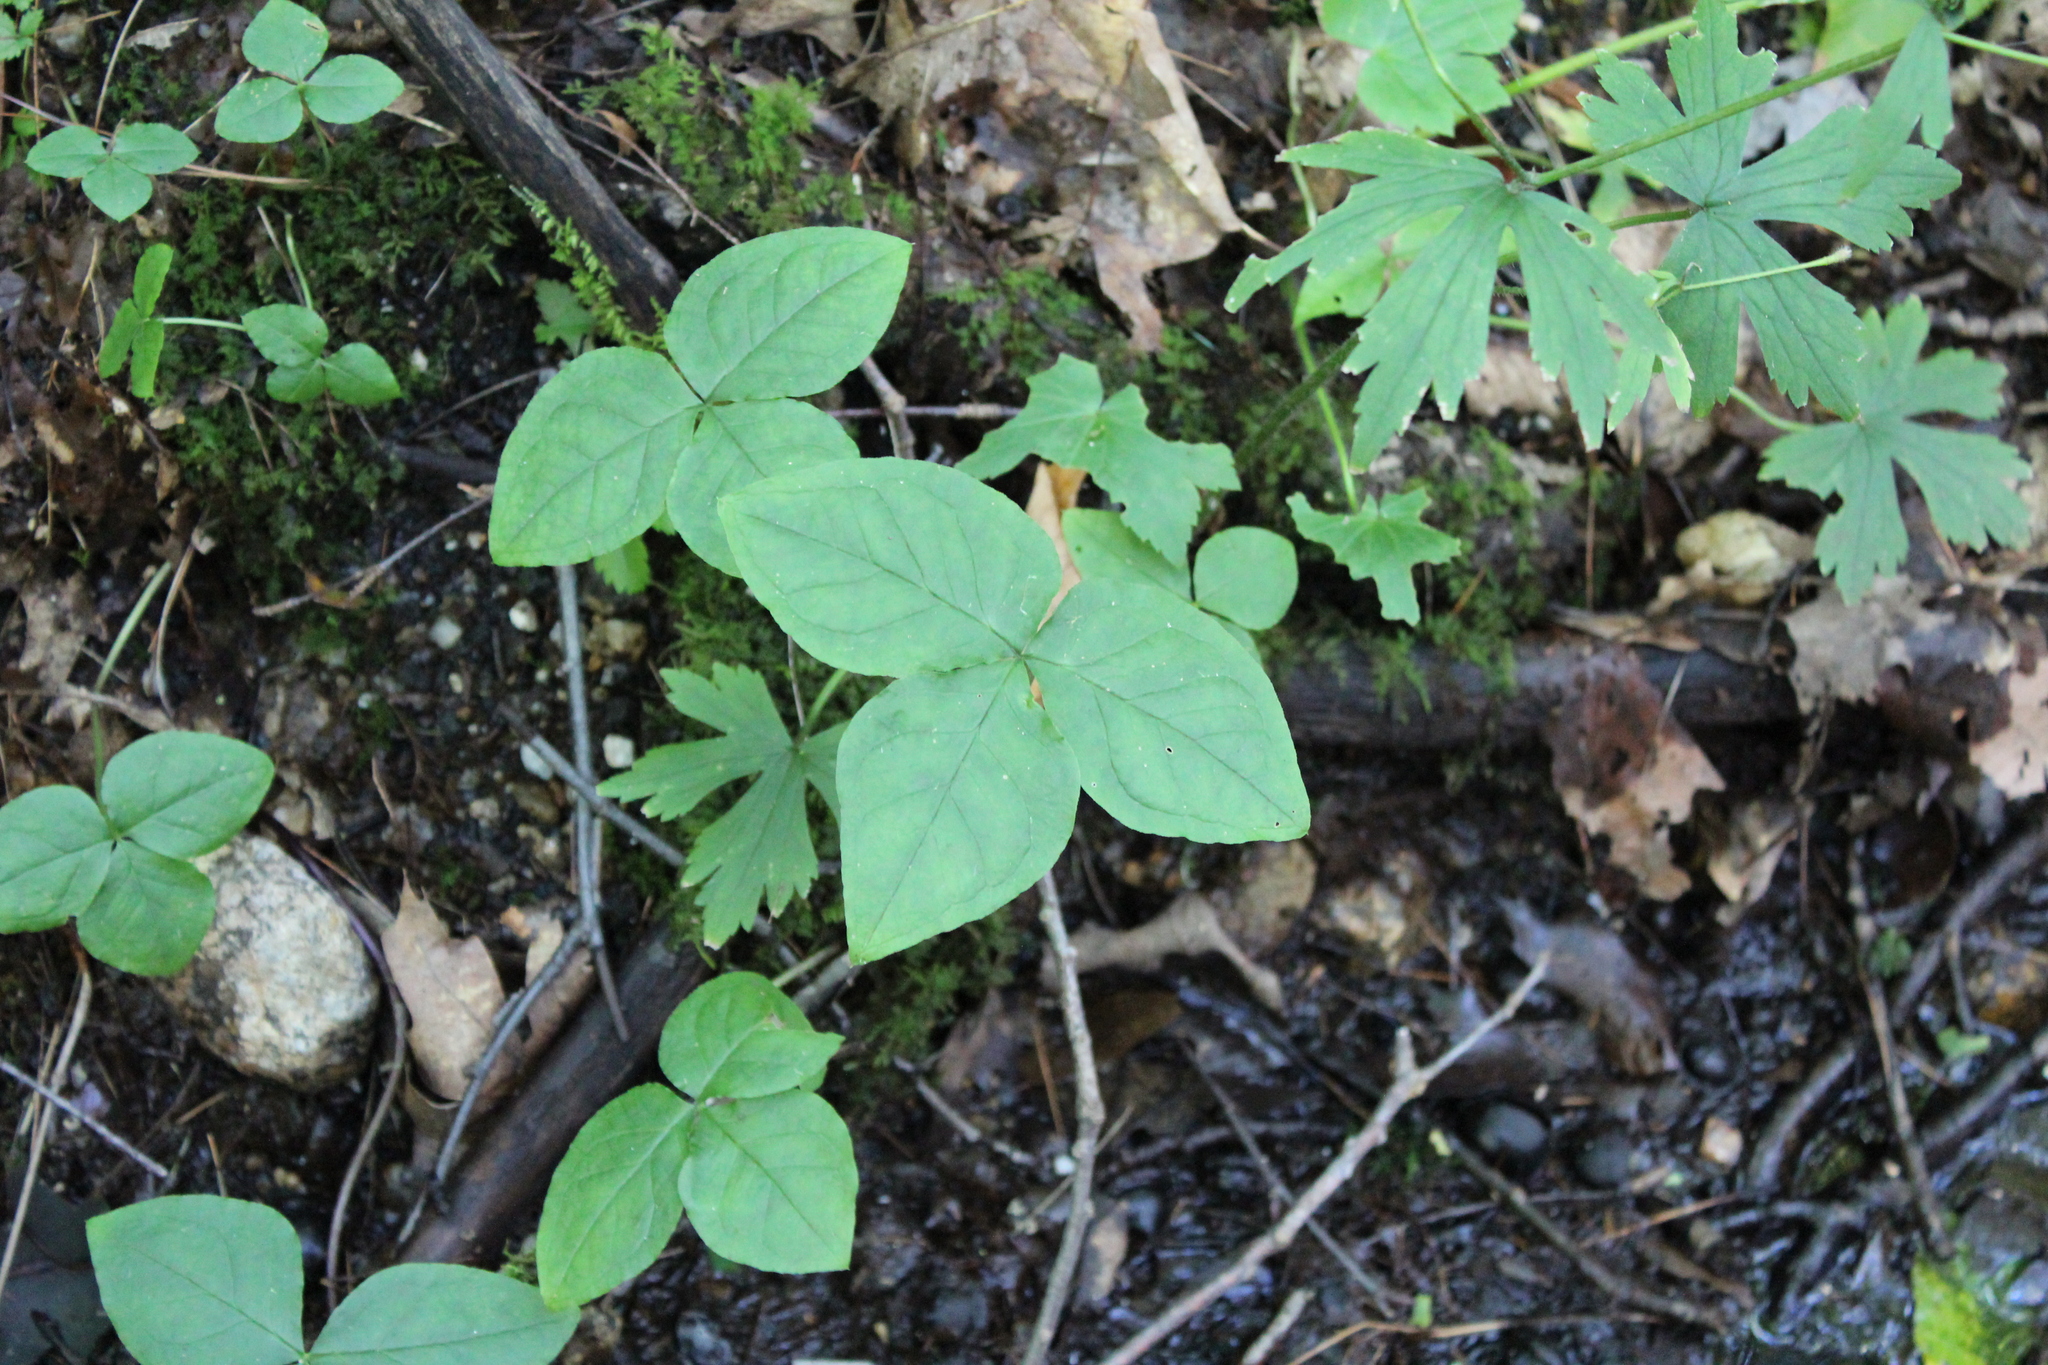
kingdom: Plantae
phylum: Tracheophyta
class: Liliopsida
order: Alismatales
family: Araceae
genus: Arisaema
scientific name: Arisaema triphyllum
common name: Jack-in-the-pulpit
